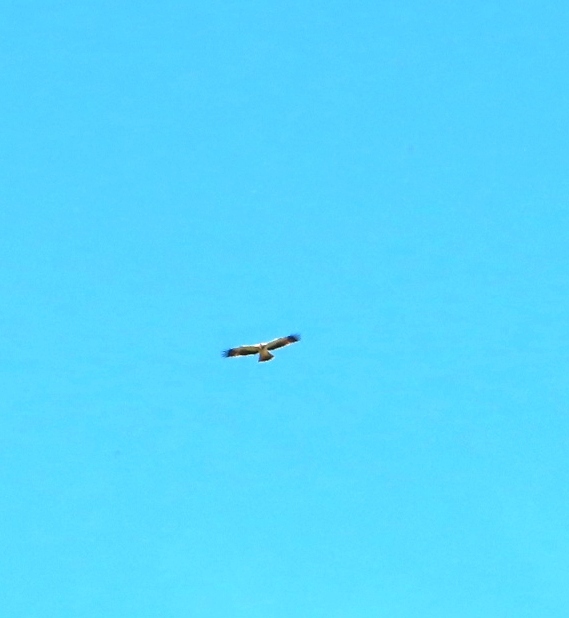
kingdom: Animalia
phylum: Chordata
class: Aves
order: Accipitriformes
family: Accipitridae
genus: Hieraaetus
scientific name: Hieraaetus pennatus
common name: Booted eagle
